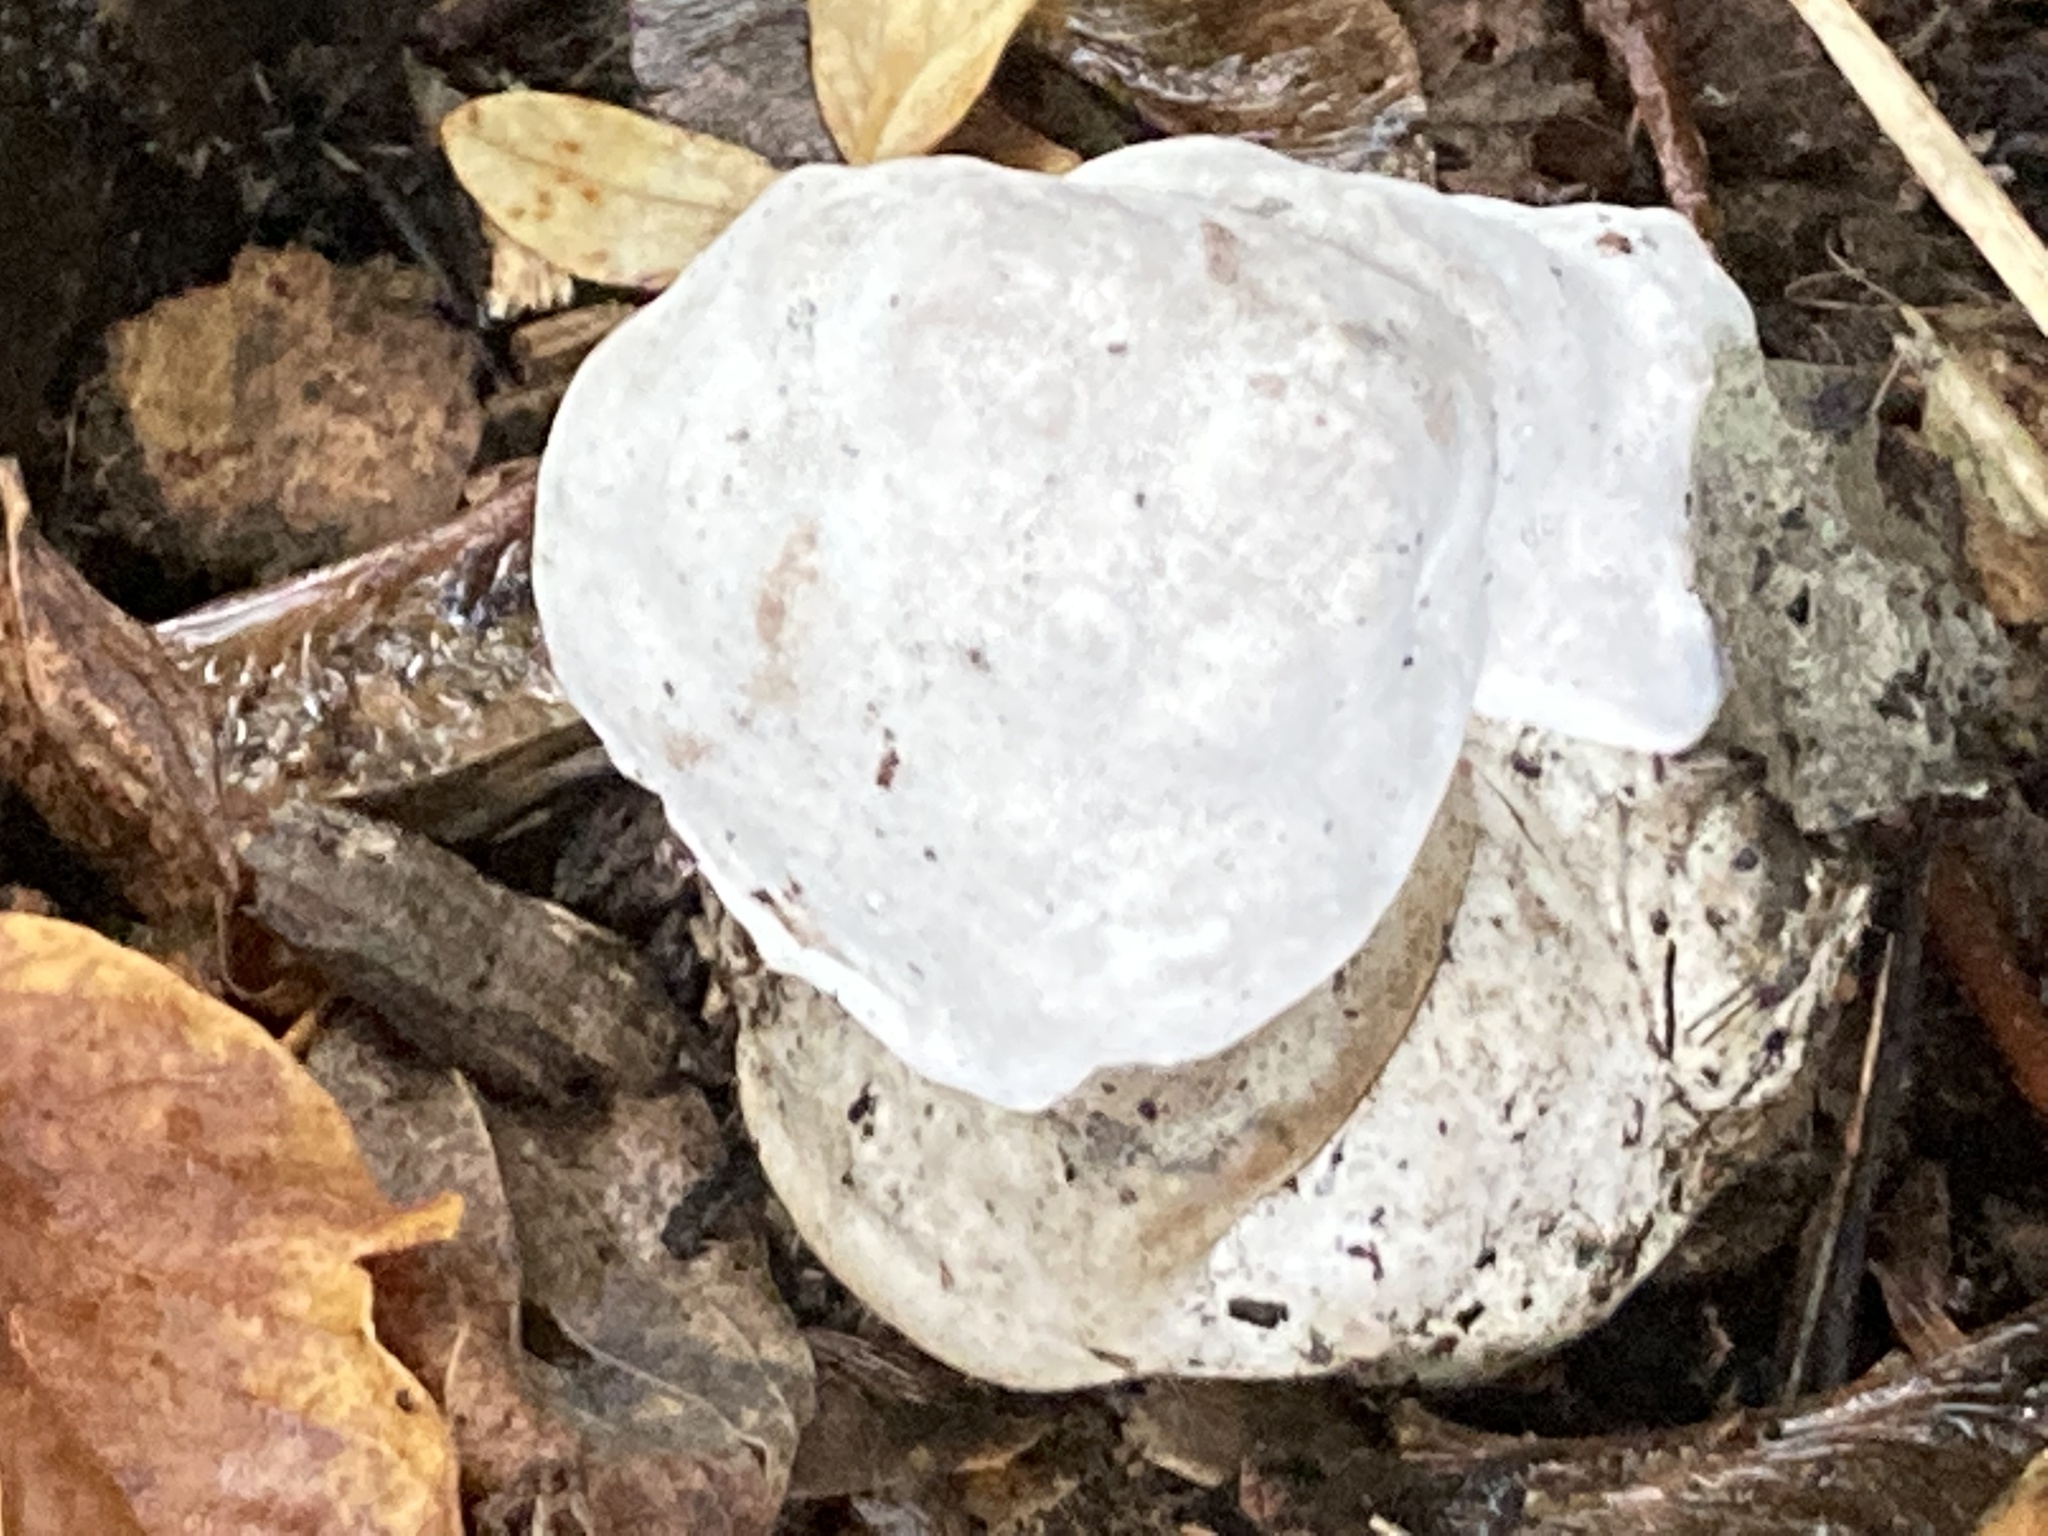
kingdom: Fungi
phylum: Ascomycota
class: Sordariomycetes
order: Hypocreales
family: Hypocreaceae
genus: Hypomyces
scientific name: Hypomyces chrysospermus
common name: Bolete mould
